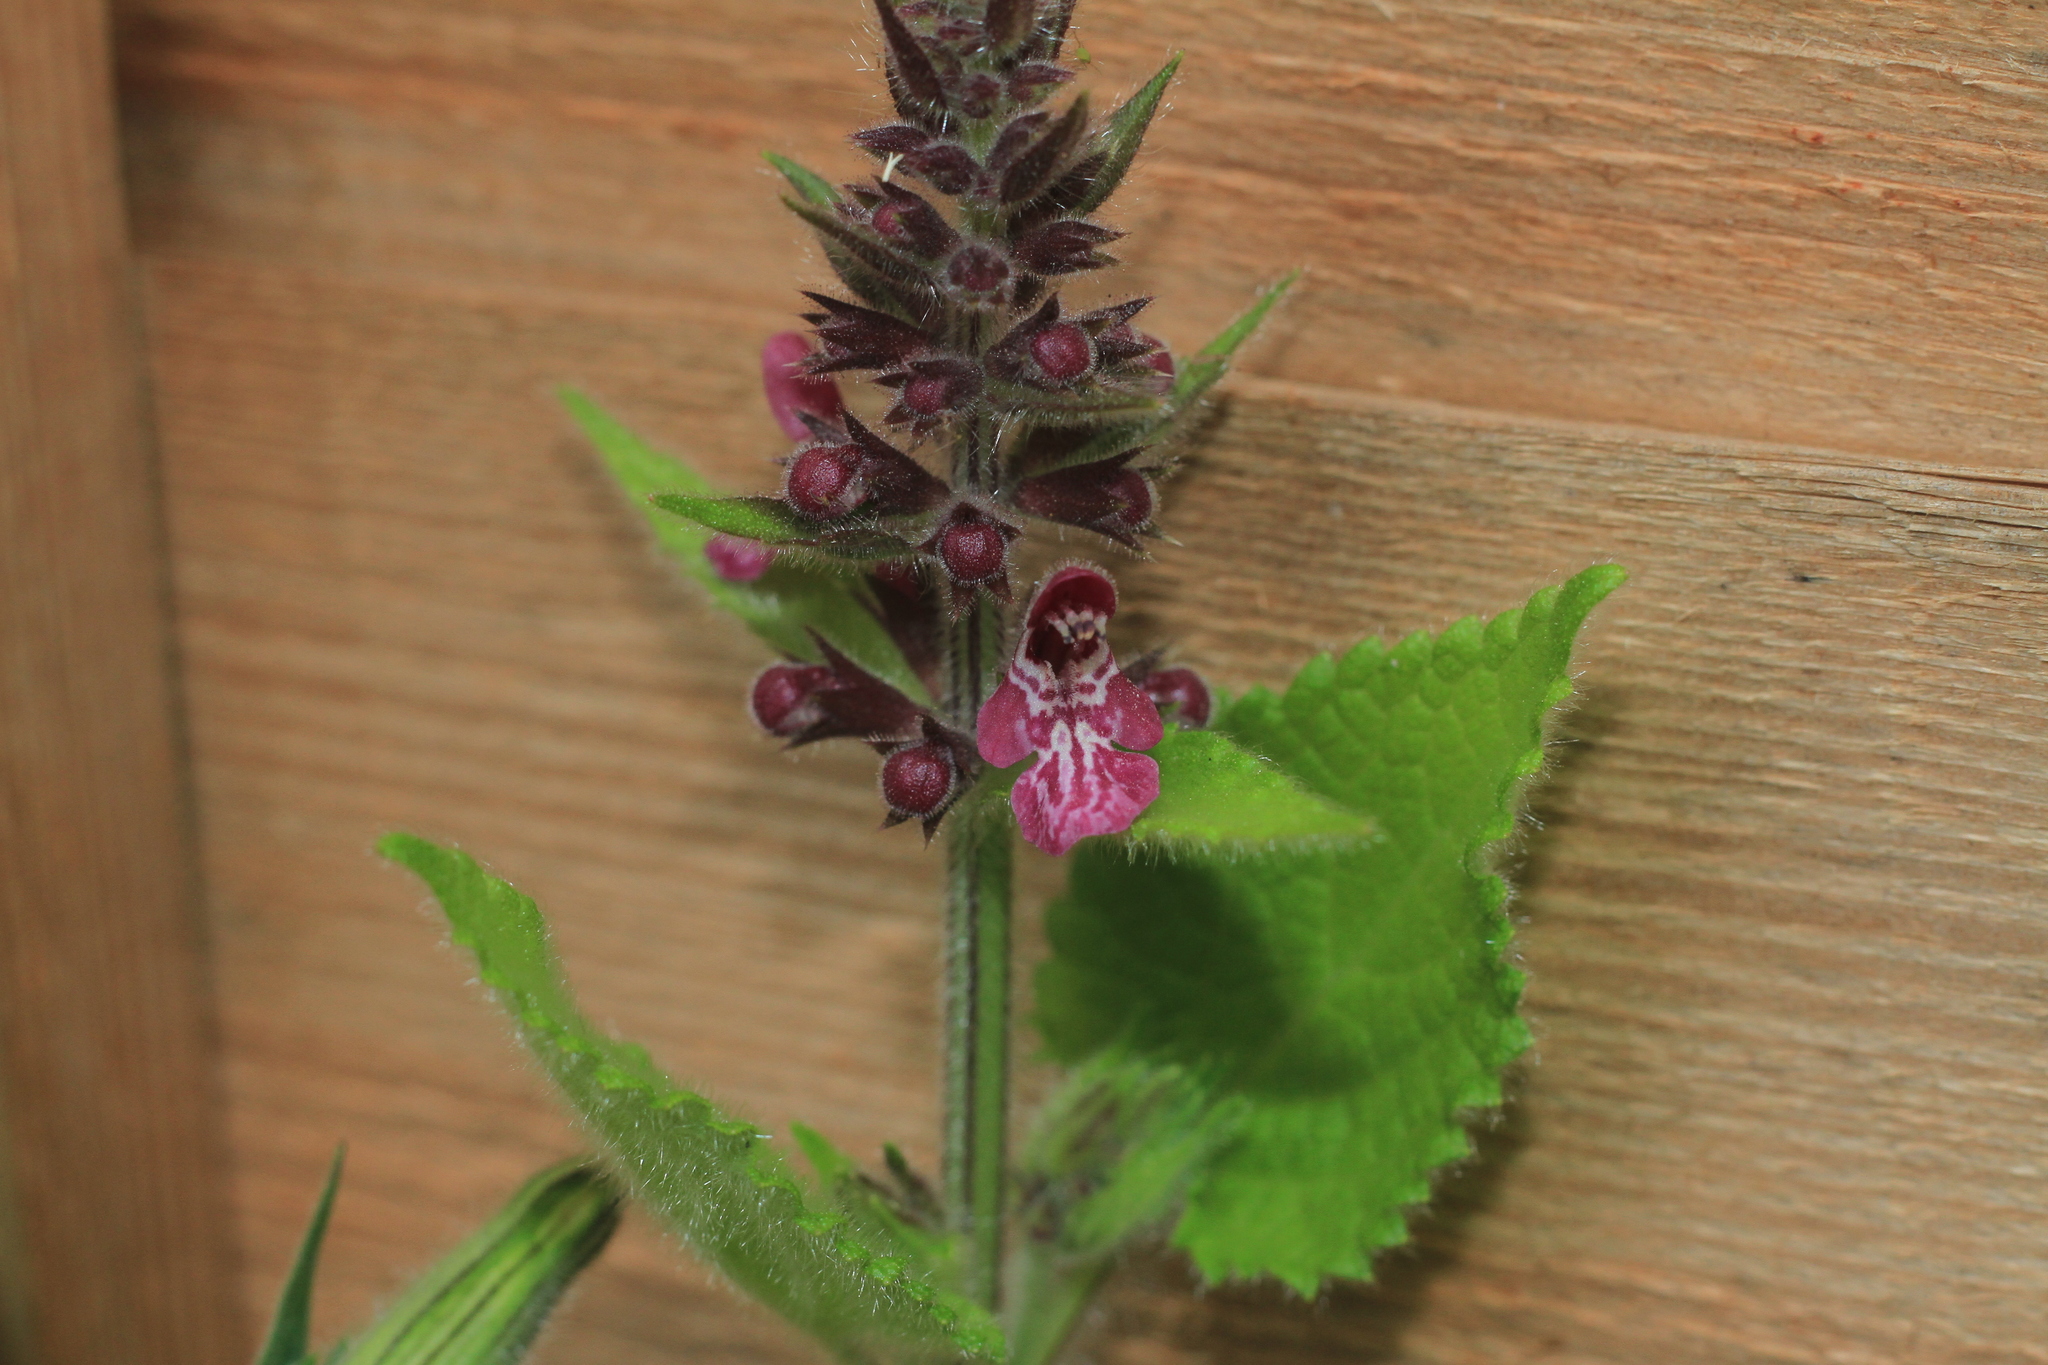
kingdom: Plantae
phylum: Tracheophyta
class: Magnoliopsida
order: Lamiales
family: Lamiaceae
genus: Stachys
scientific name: Stachys sylvatica
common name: Hedge woundwort
